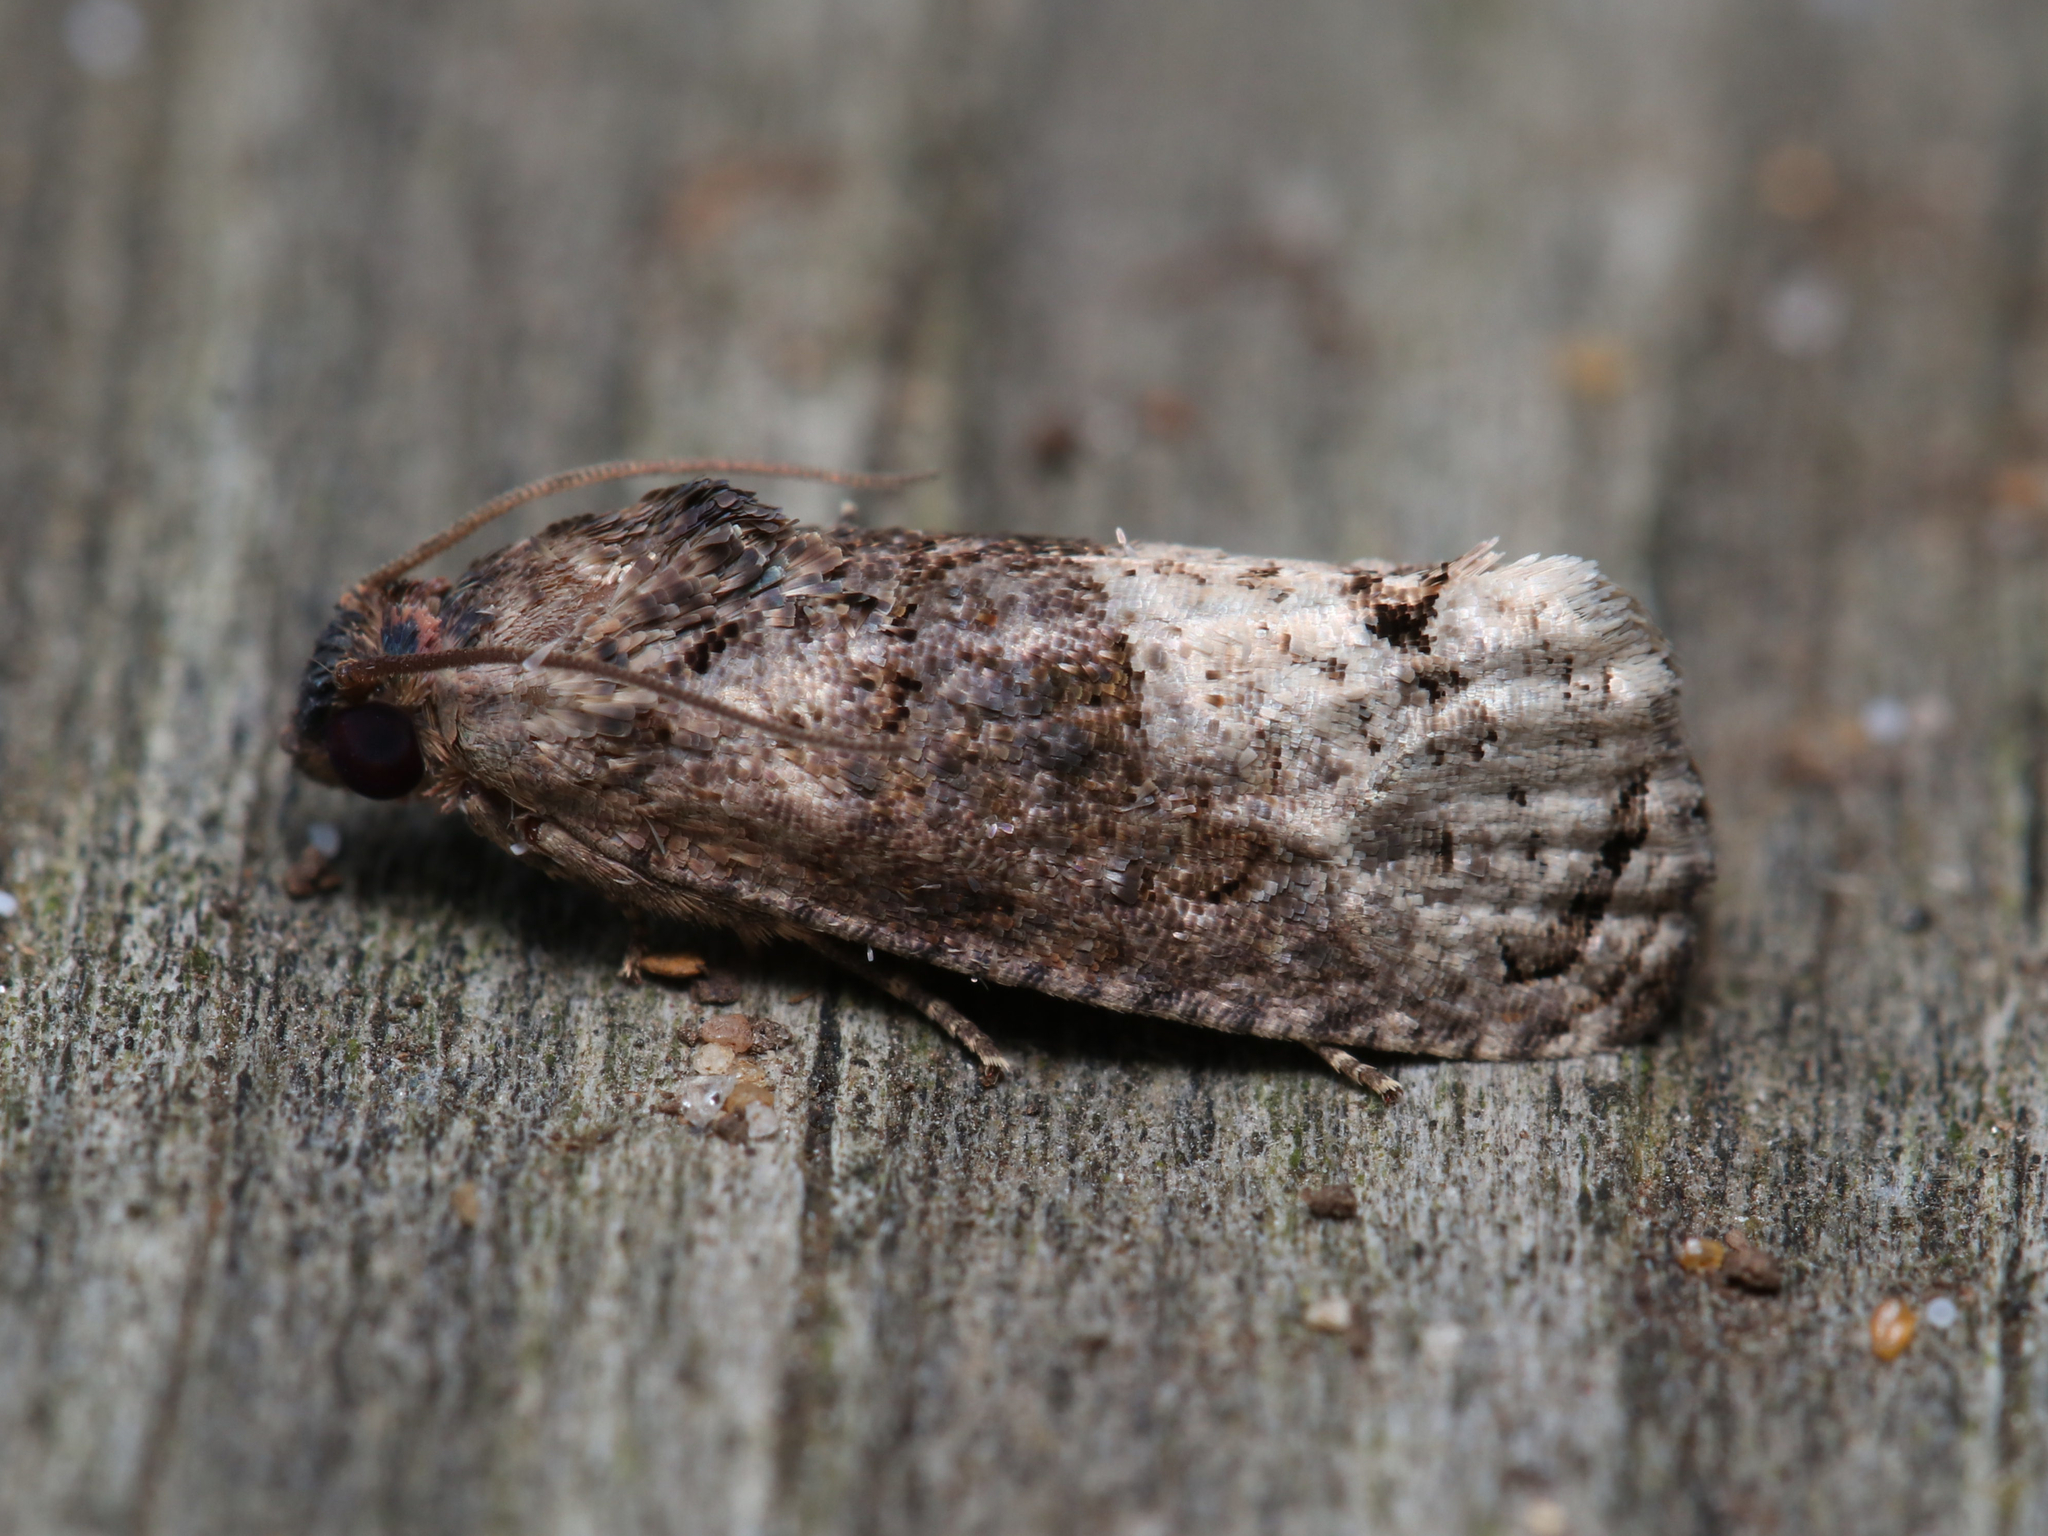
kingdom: Animalia
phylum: Arthropoda
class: Insecta
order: Lepidoptera
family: Tortricidae
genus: Ecdytolopha
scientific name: Ecdytolopha insiticiana
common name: Locust twig borer moth
